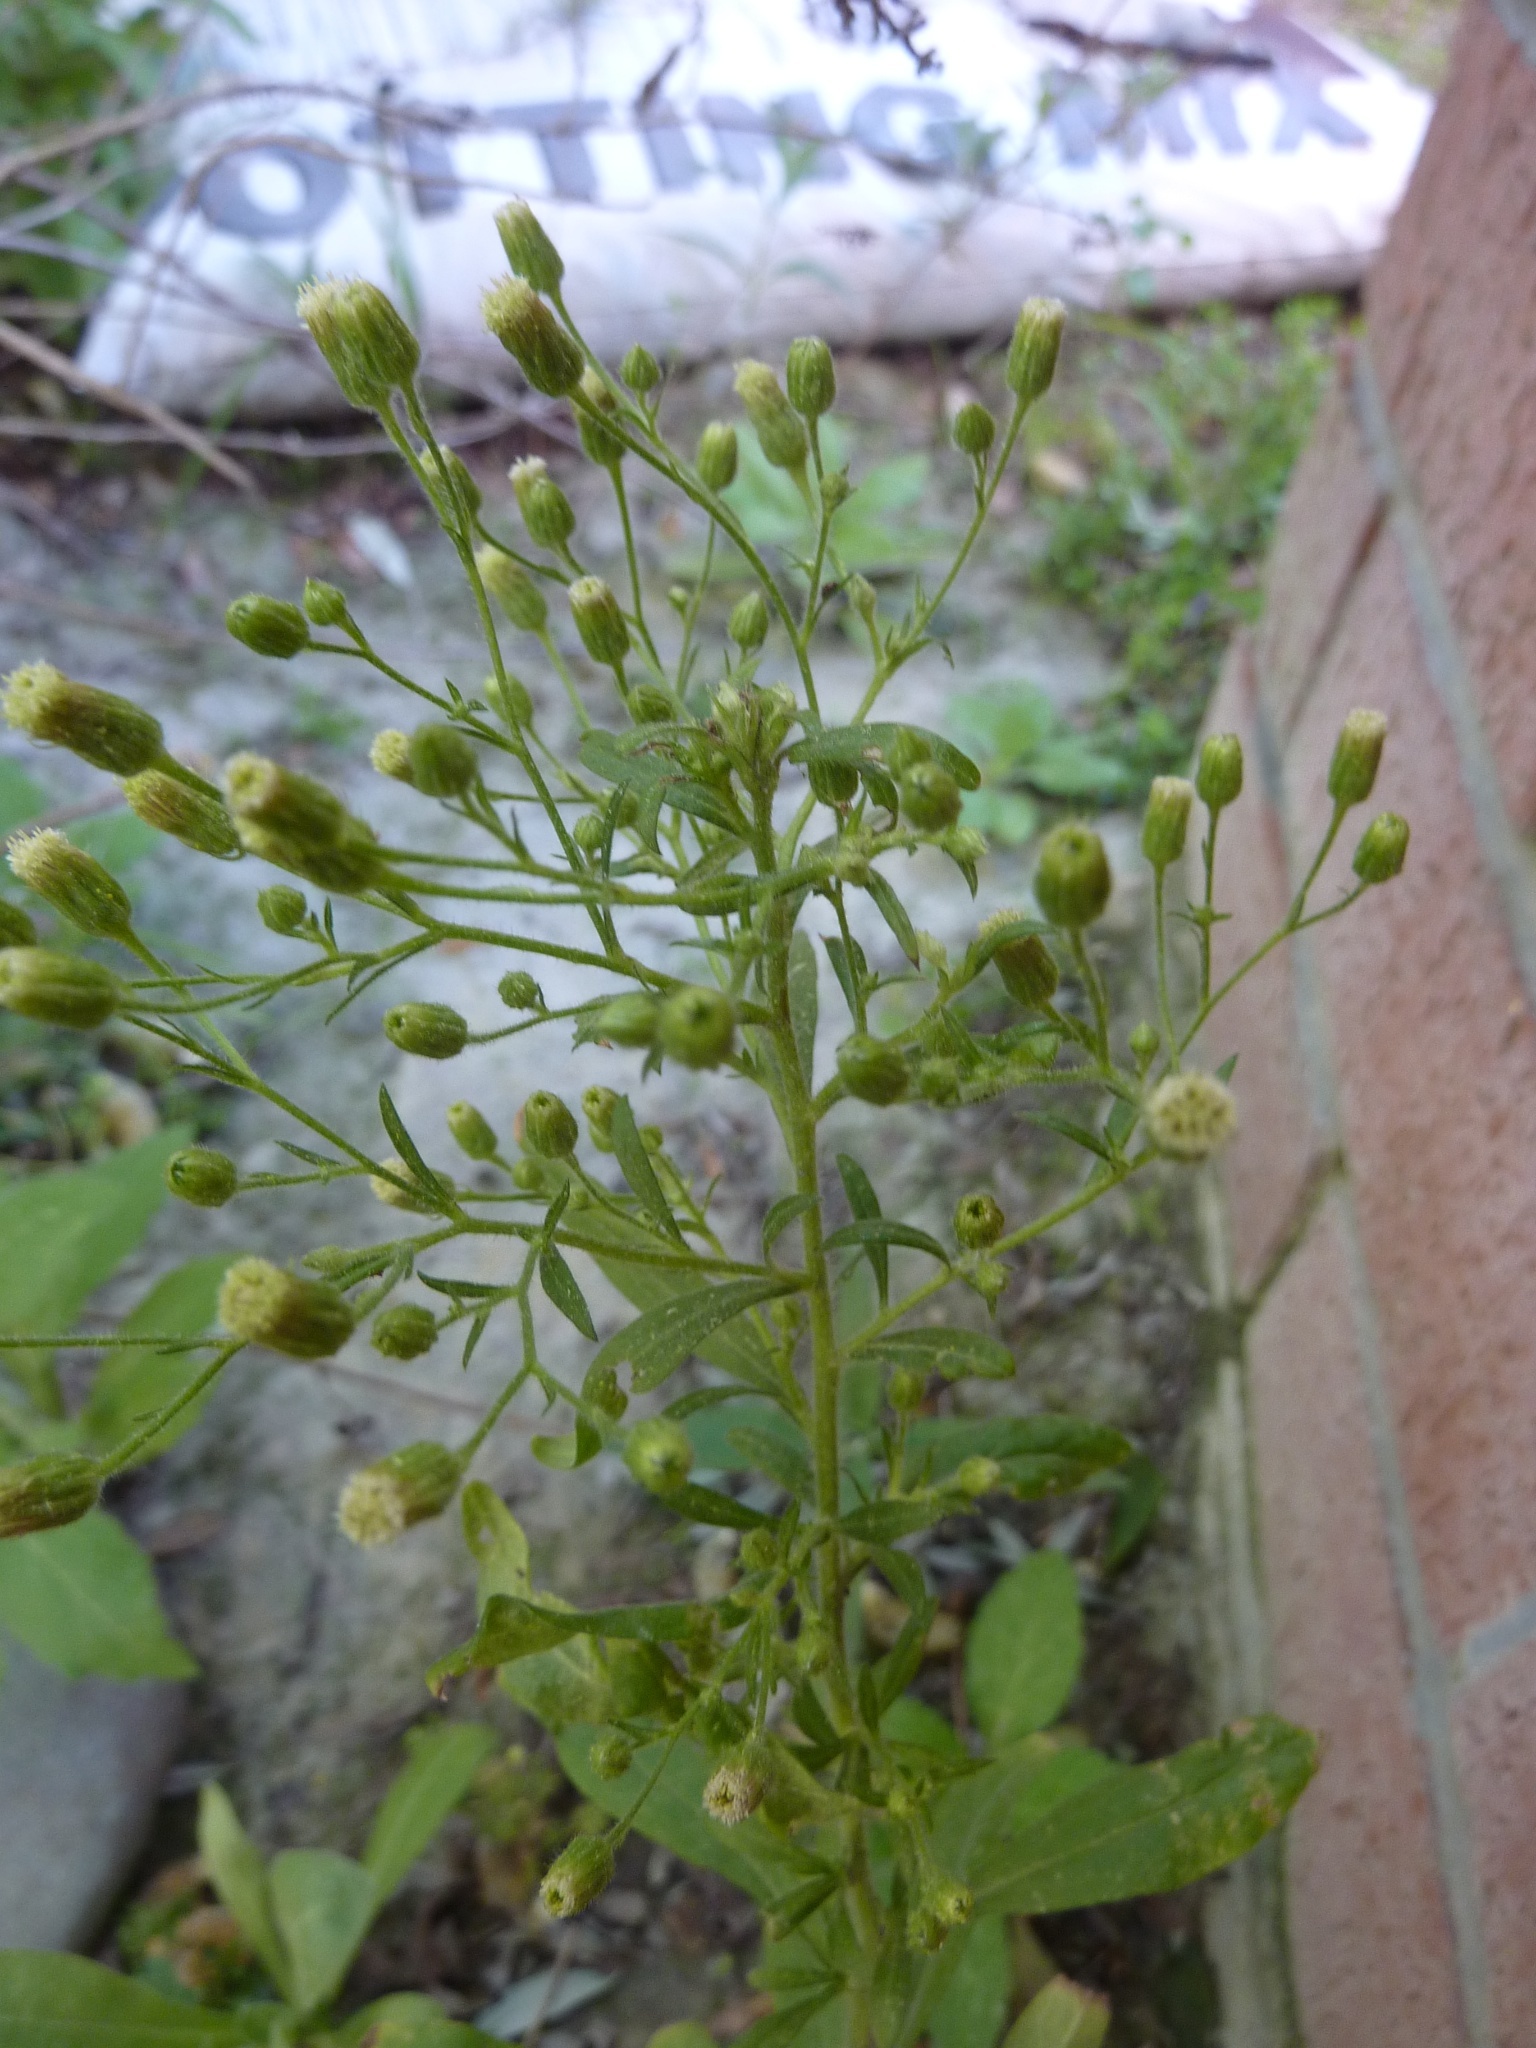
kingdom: Plantae
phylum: Tracheophyta
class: Magnoliopsida
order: Asterales
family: Asteraceae
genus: Erigeron
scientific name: Erigeron sumatrensis
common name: Daisy
